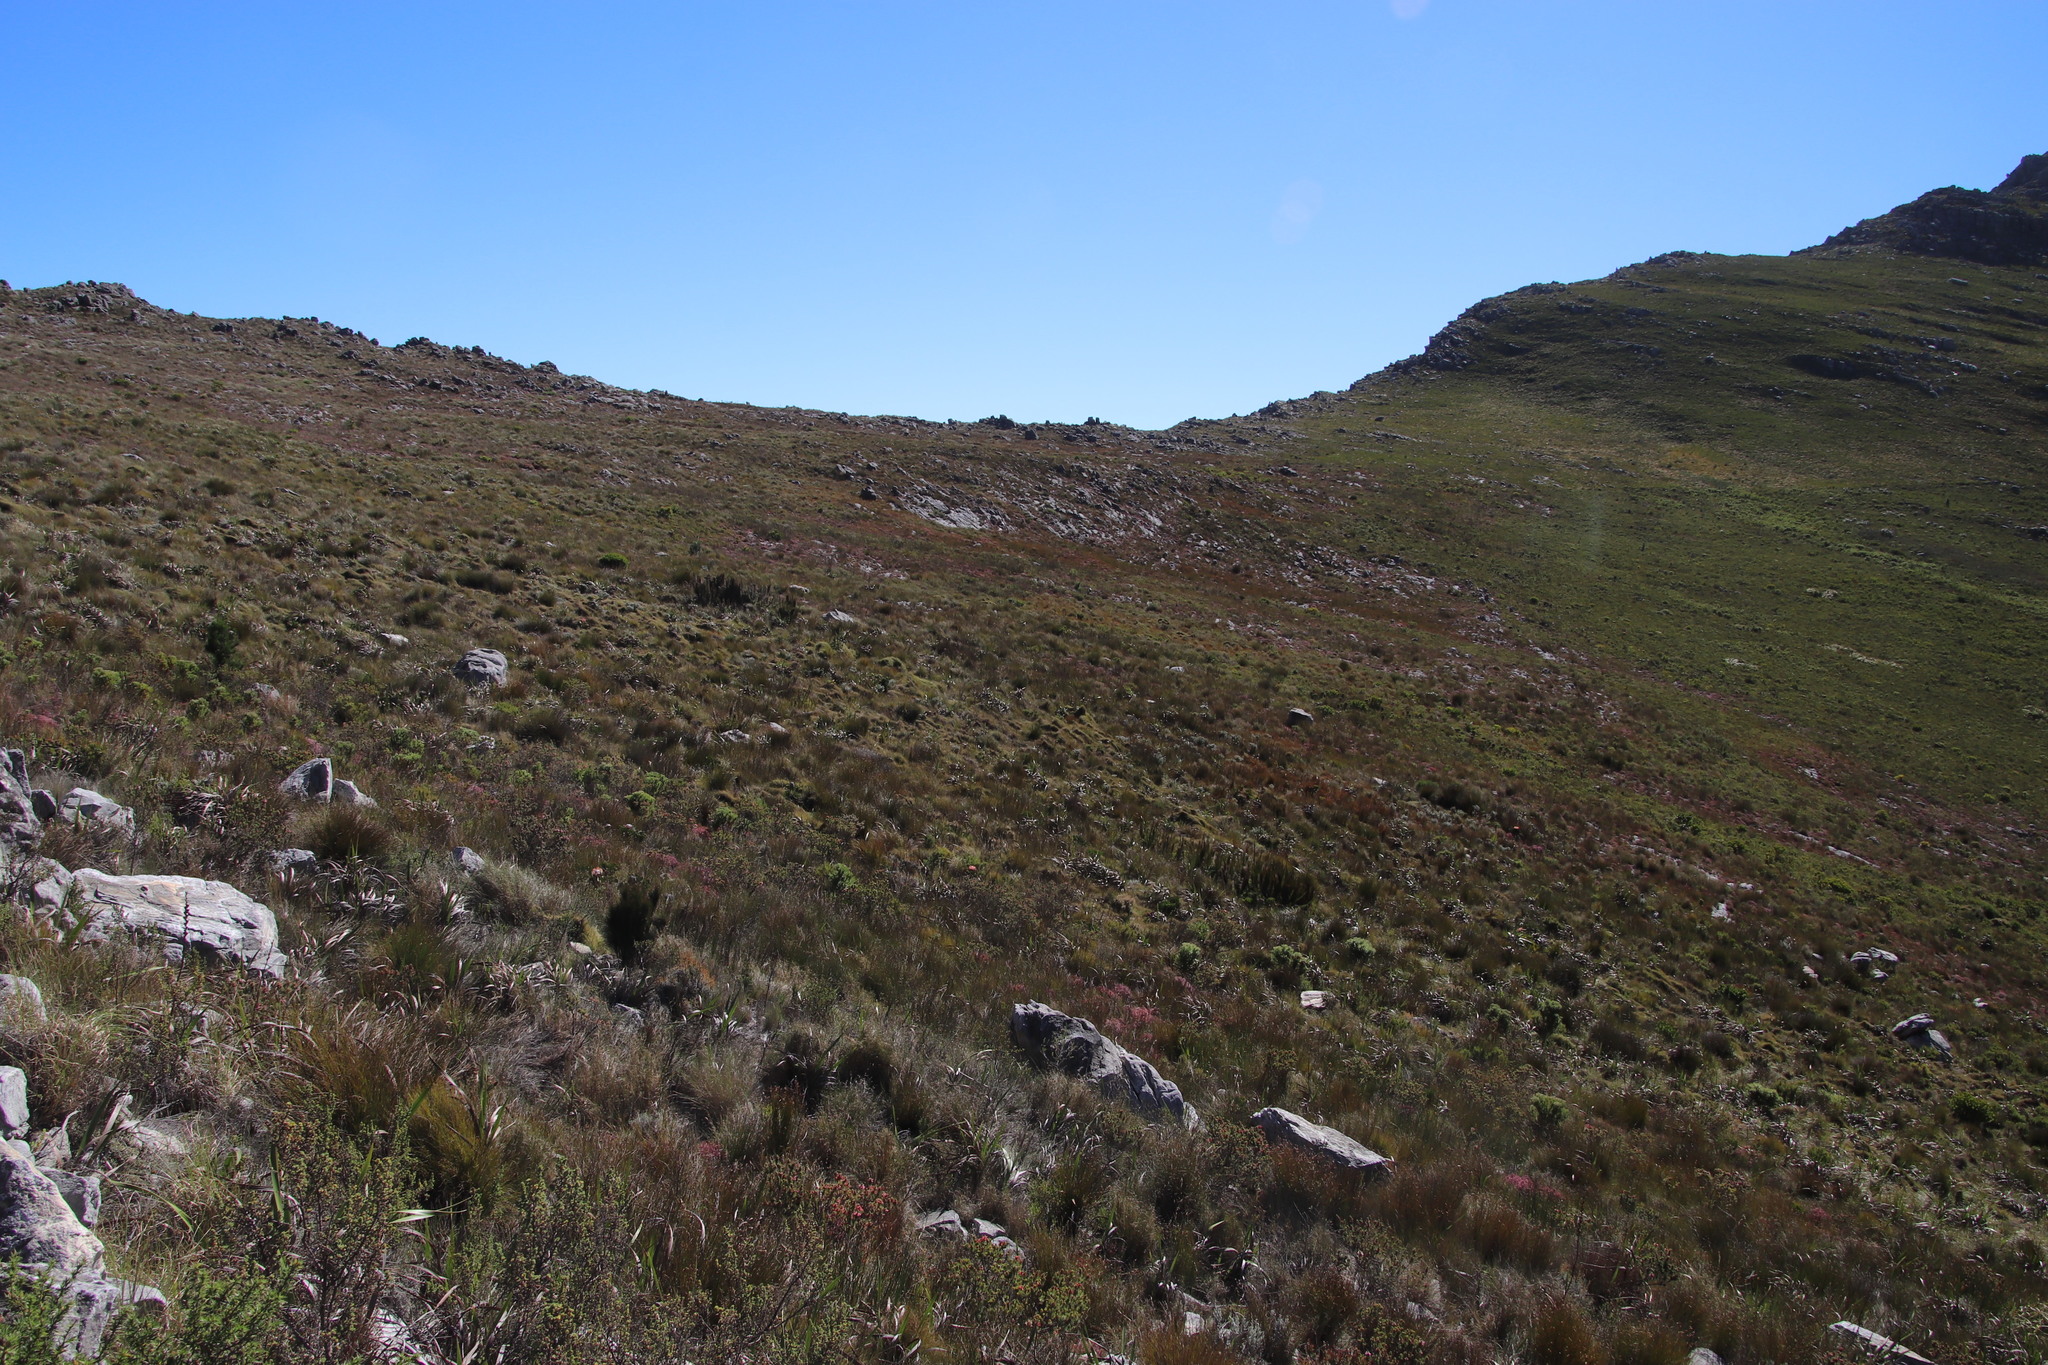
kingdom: Plantae
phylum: Tracheophyta
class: Liliopsida
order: Poales
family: Restionaceae
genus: Rhodocoma
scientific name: Rhodocoma capensis
